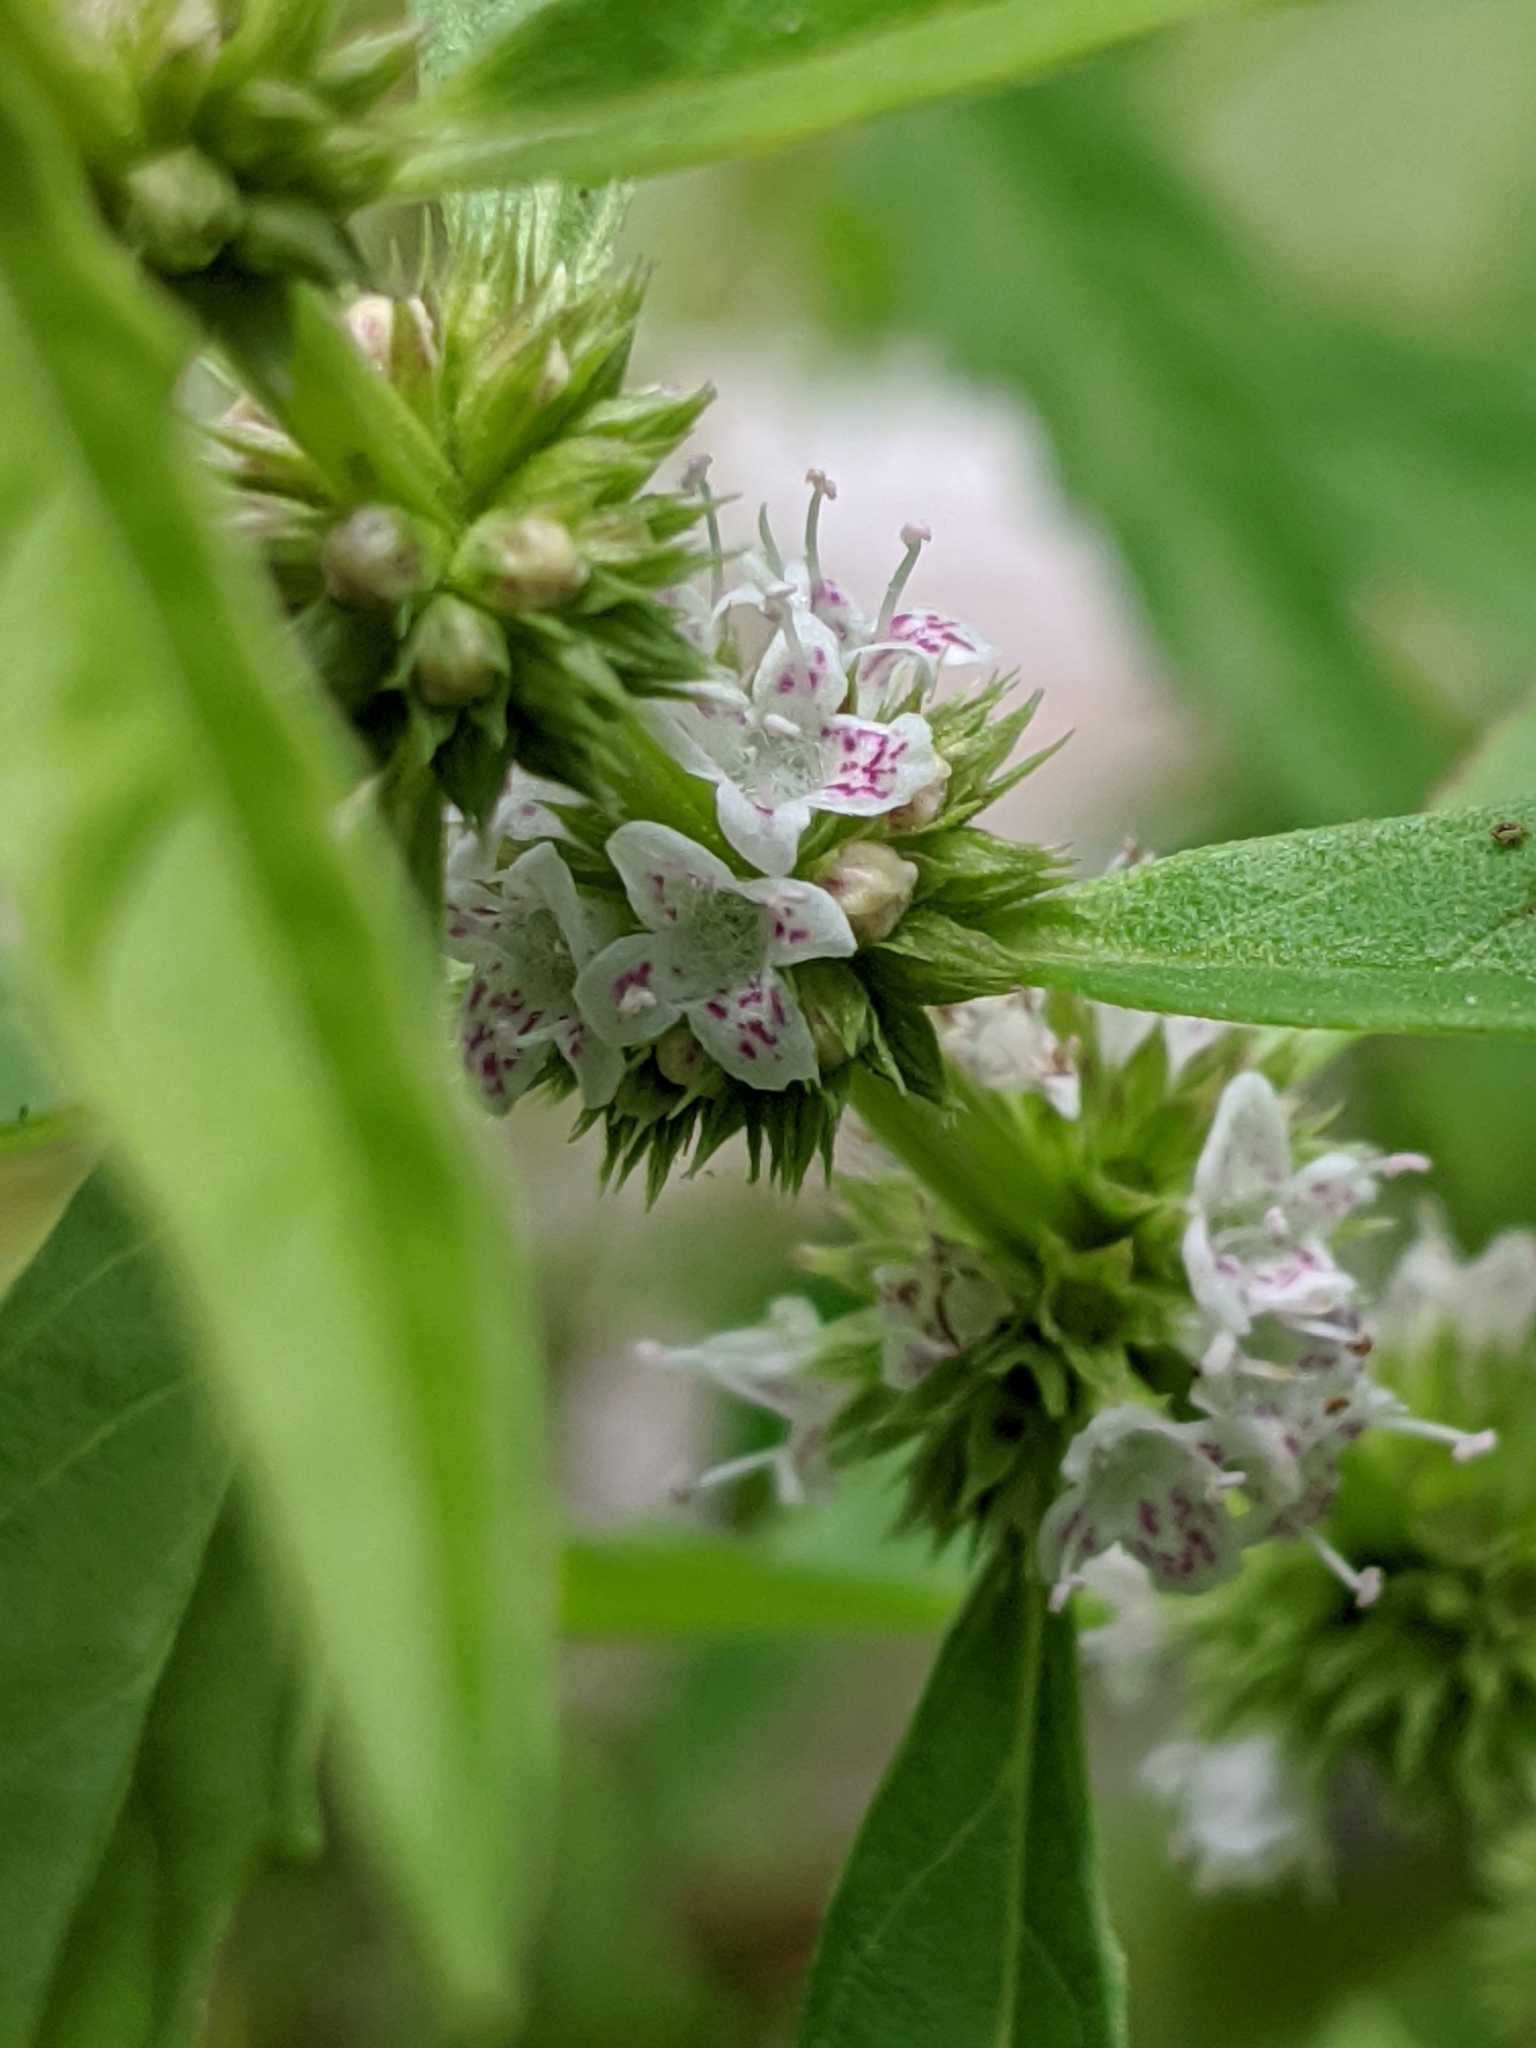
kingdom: Plantae
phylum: Tracheophyta
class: Magnoliopsida
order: Lamiales
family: Lamiaceae
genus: Lycopus
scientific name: Lycopus europaeus
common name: European bugleweed
